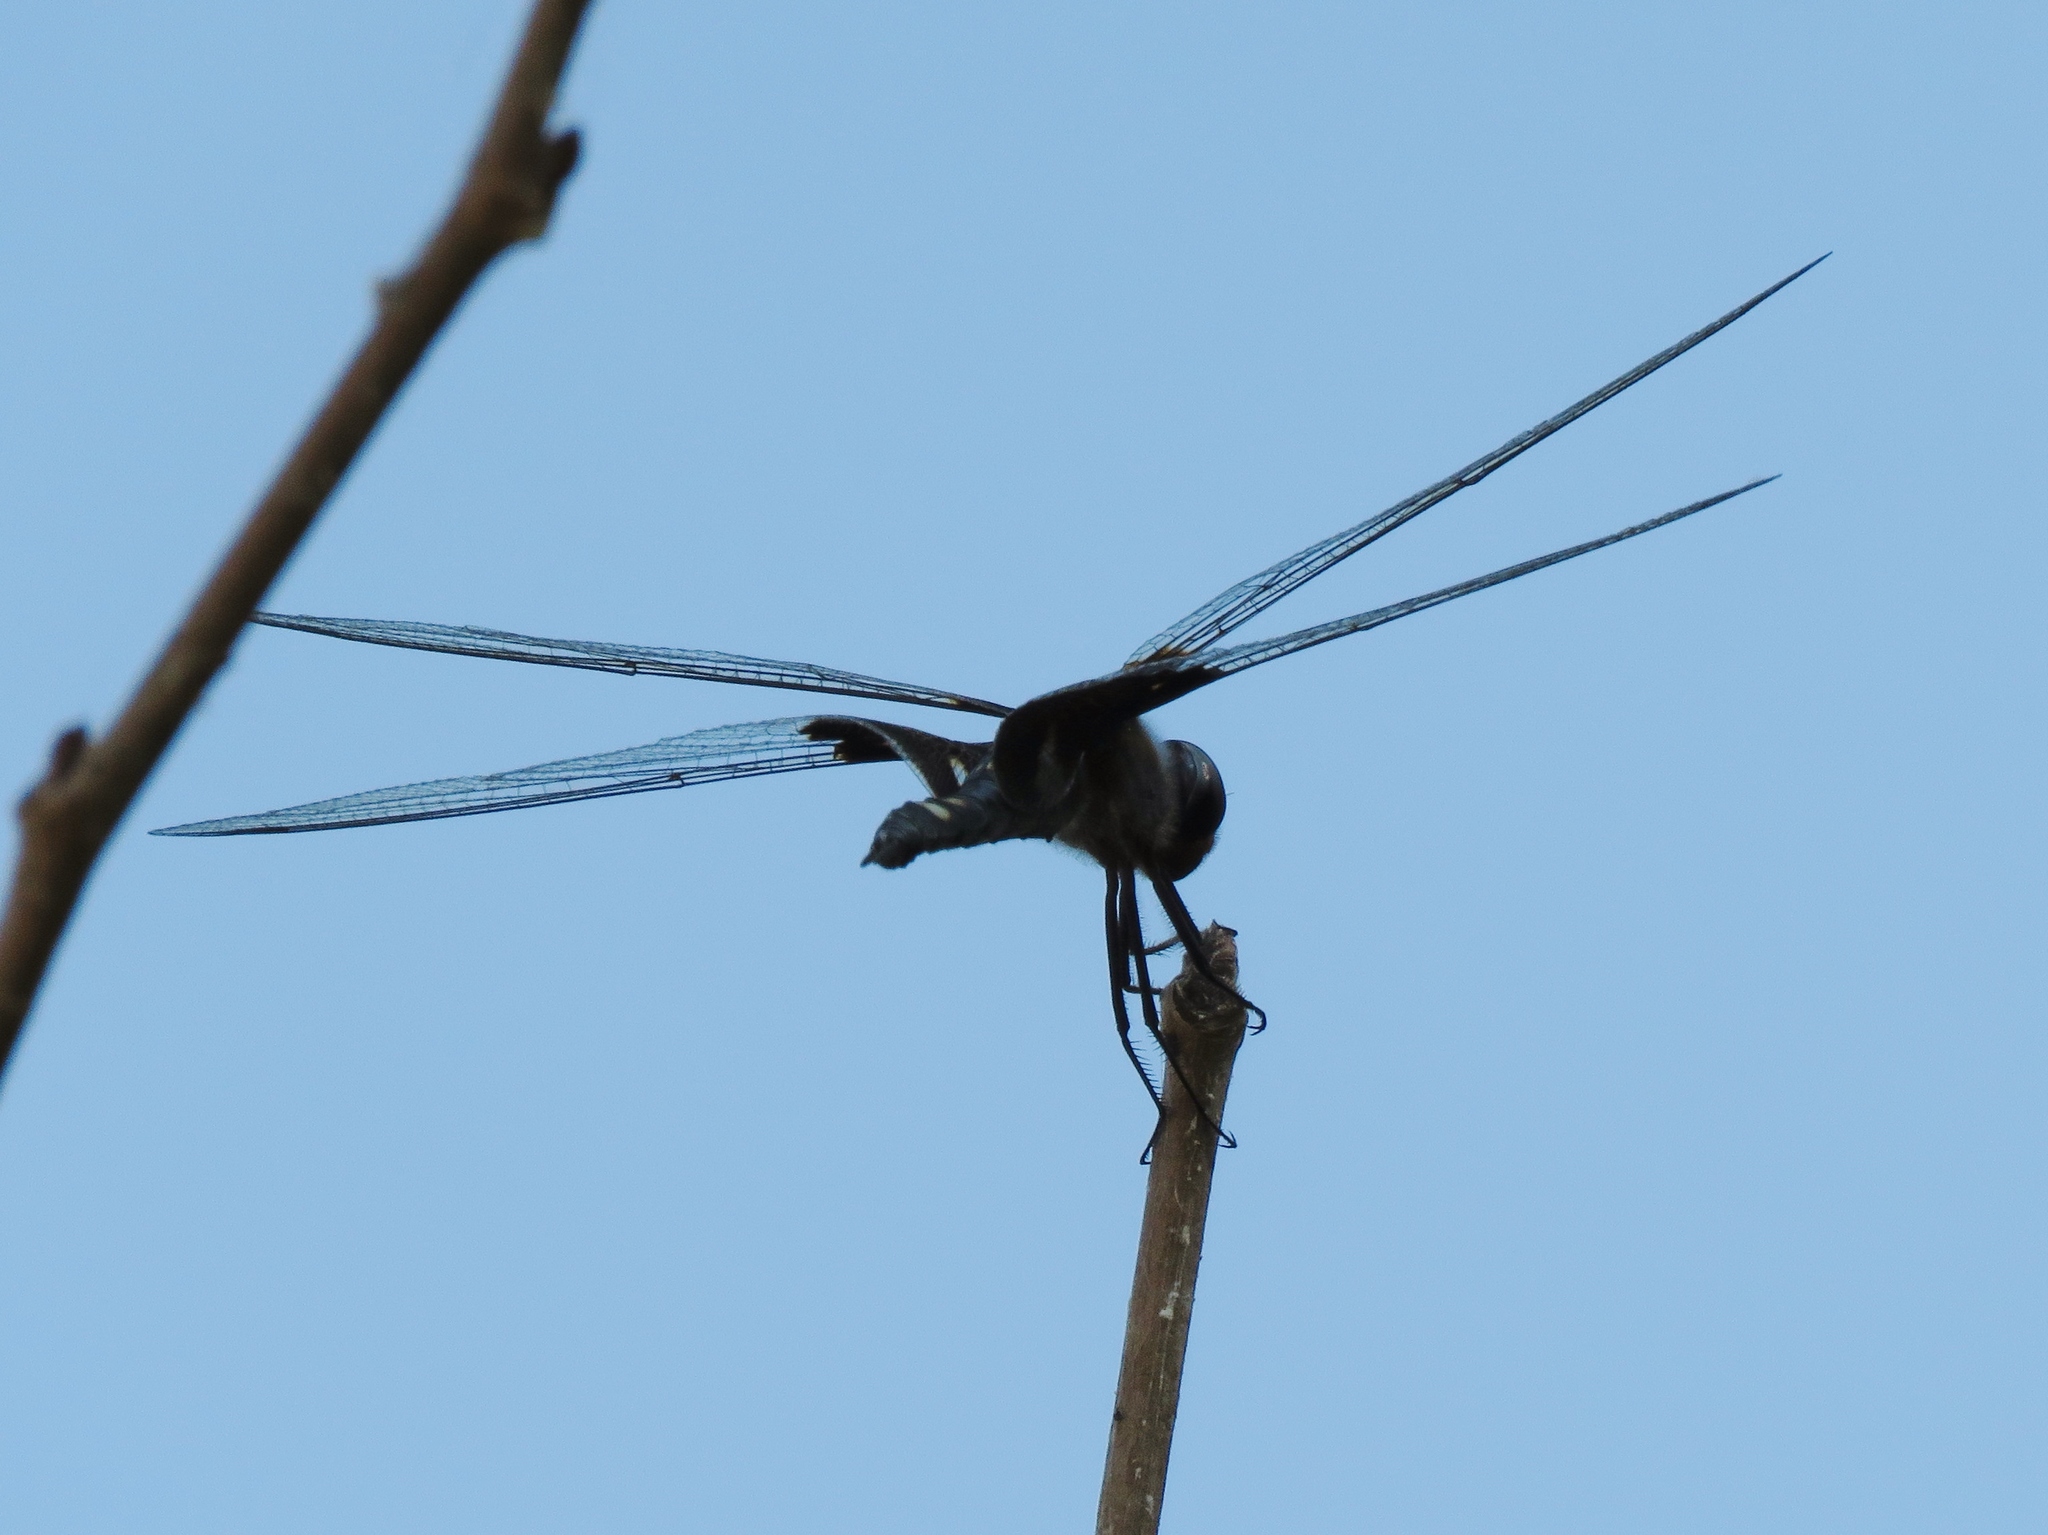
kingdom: Animalia
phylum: Arthropoda
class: Insecta
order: Odonata
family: Libellulidae
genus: Tramea
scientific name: Tramea lacerata
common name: Black saddlebags
